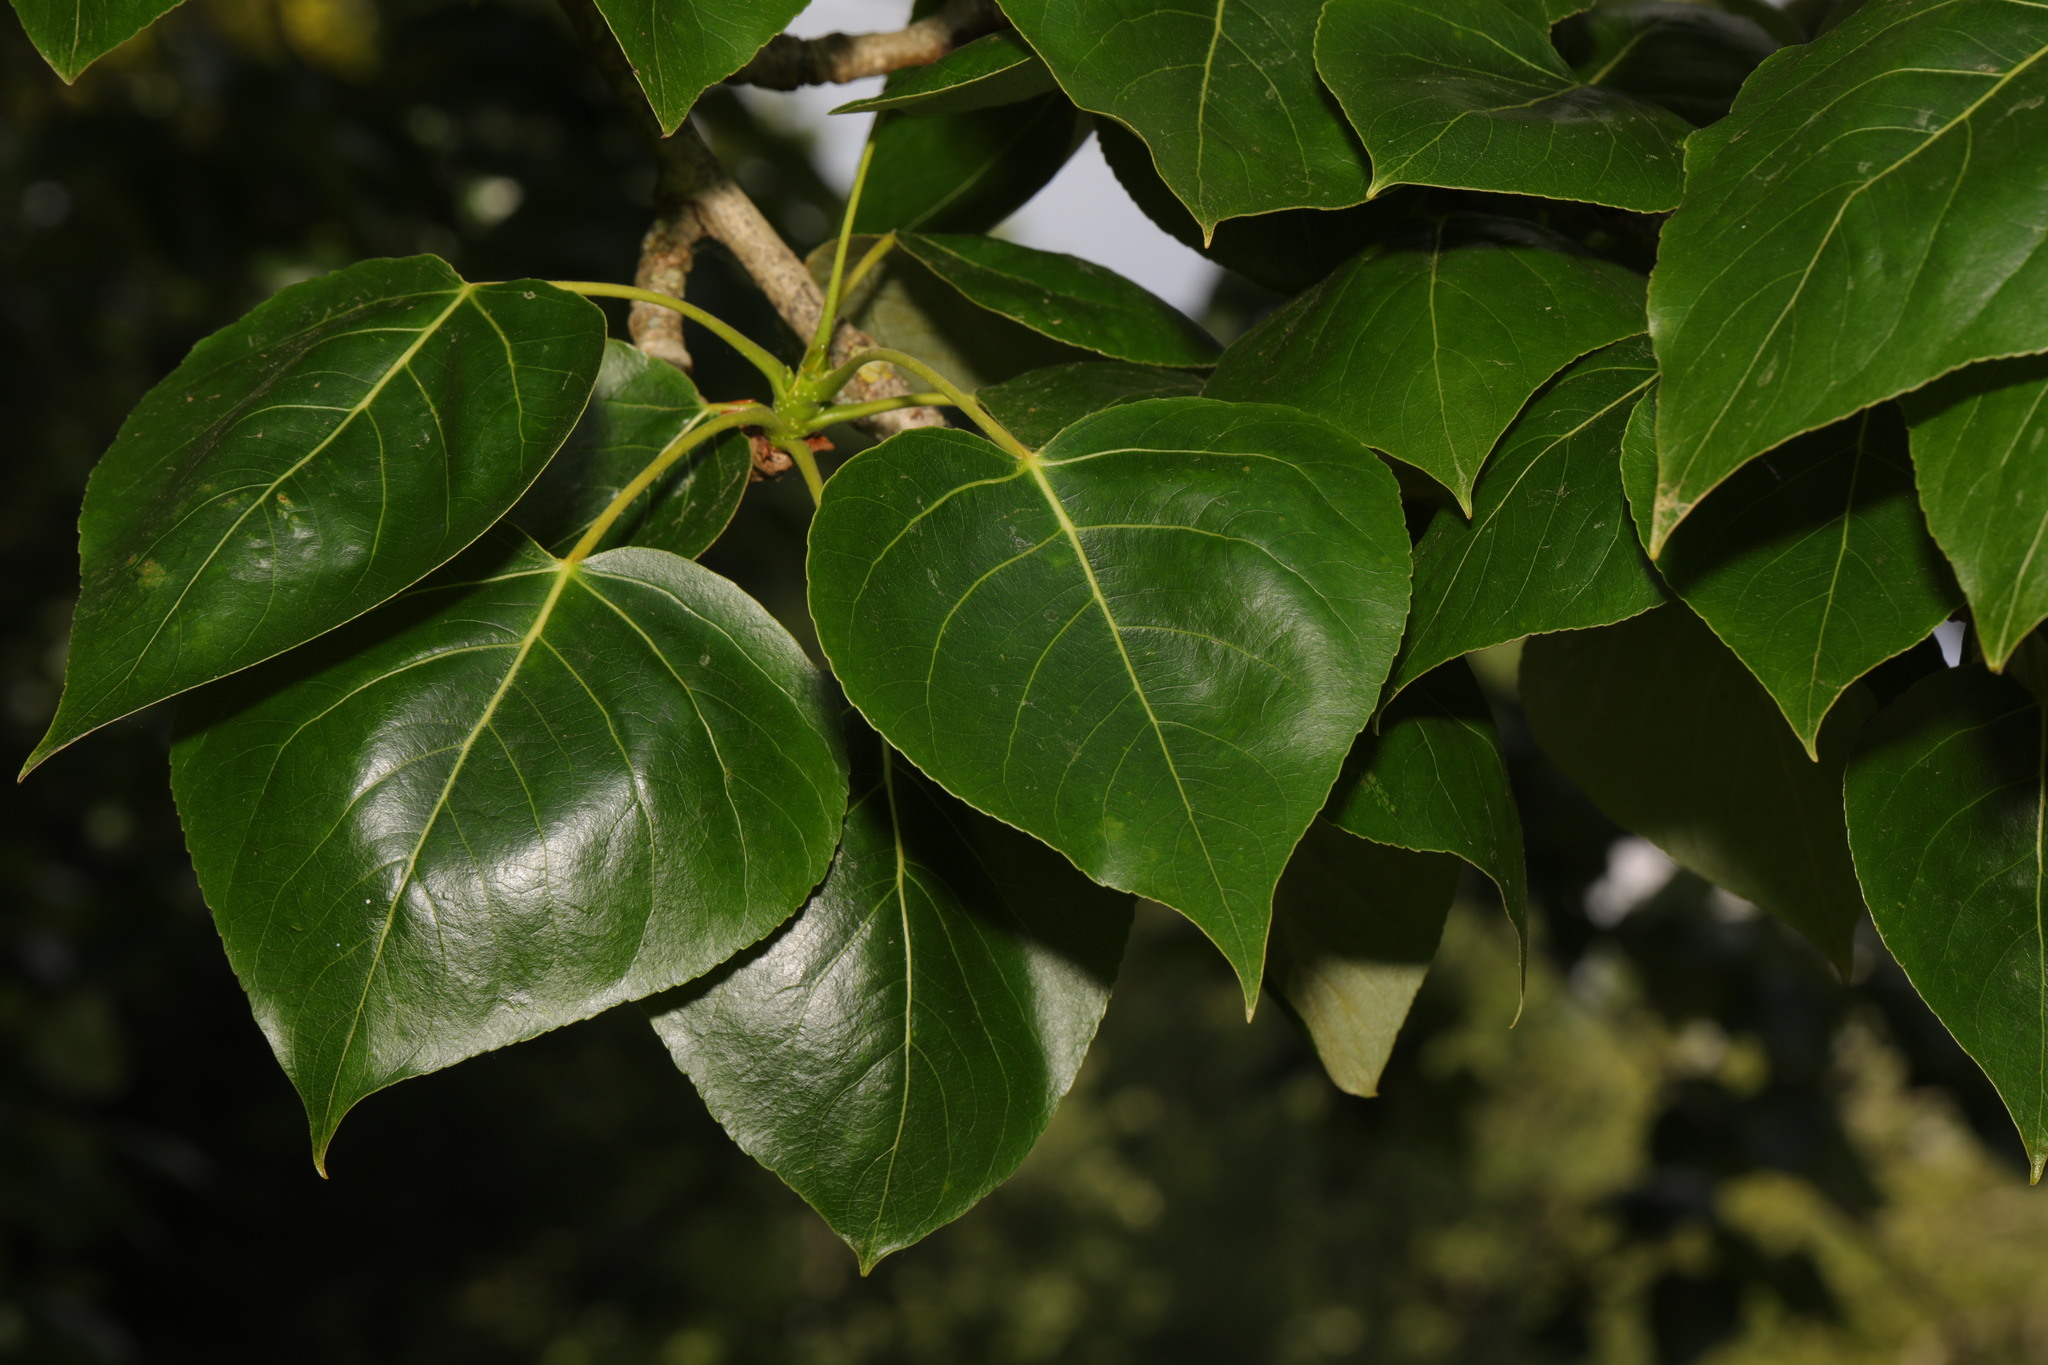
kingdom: Plantae
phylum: Tracheophyta
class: Magnoliopsida
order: Malpighiales
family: Salicaceae
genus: Populus
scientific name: Populus hastata
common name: Black cottonwood
